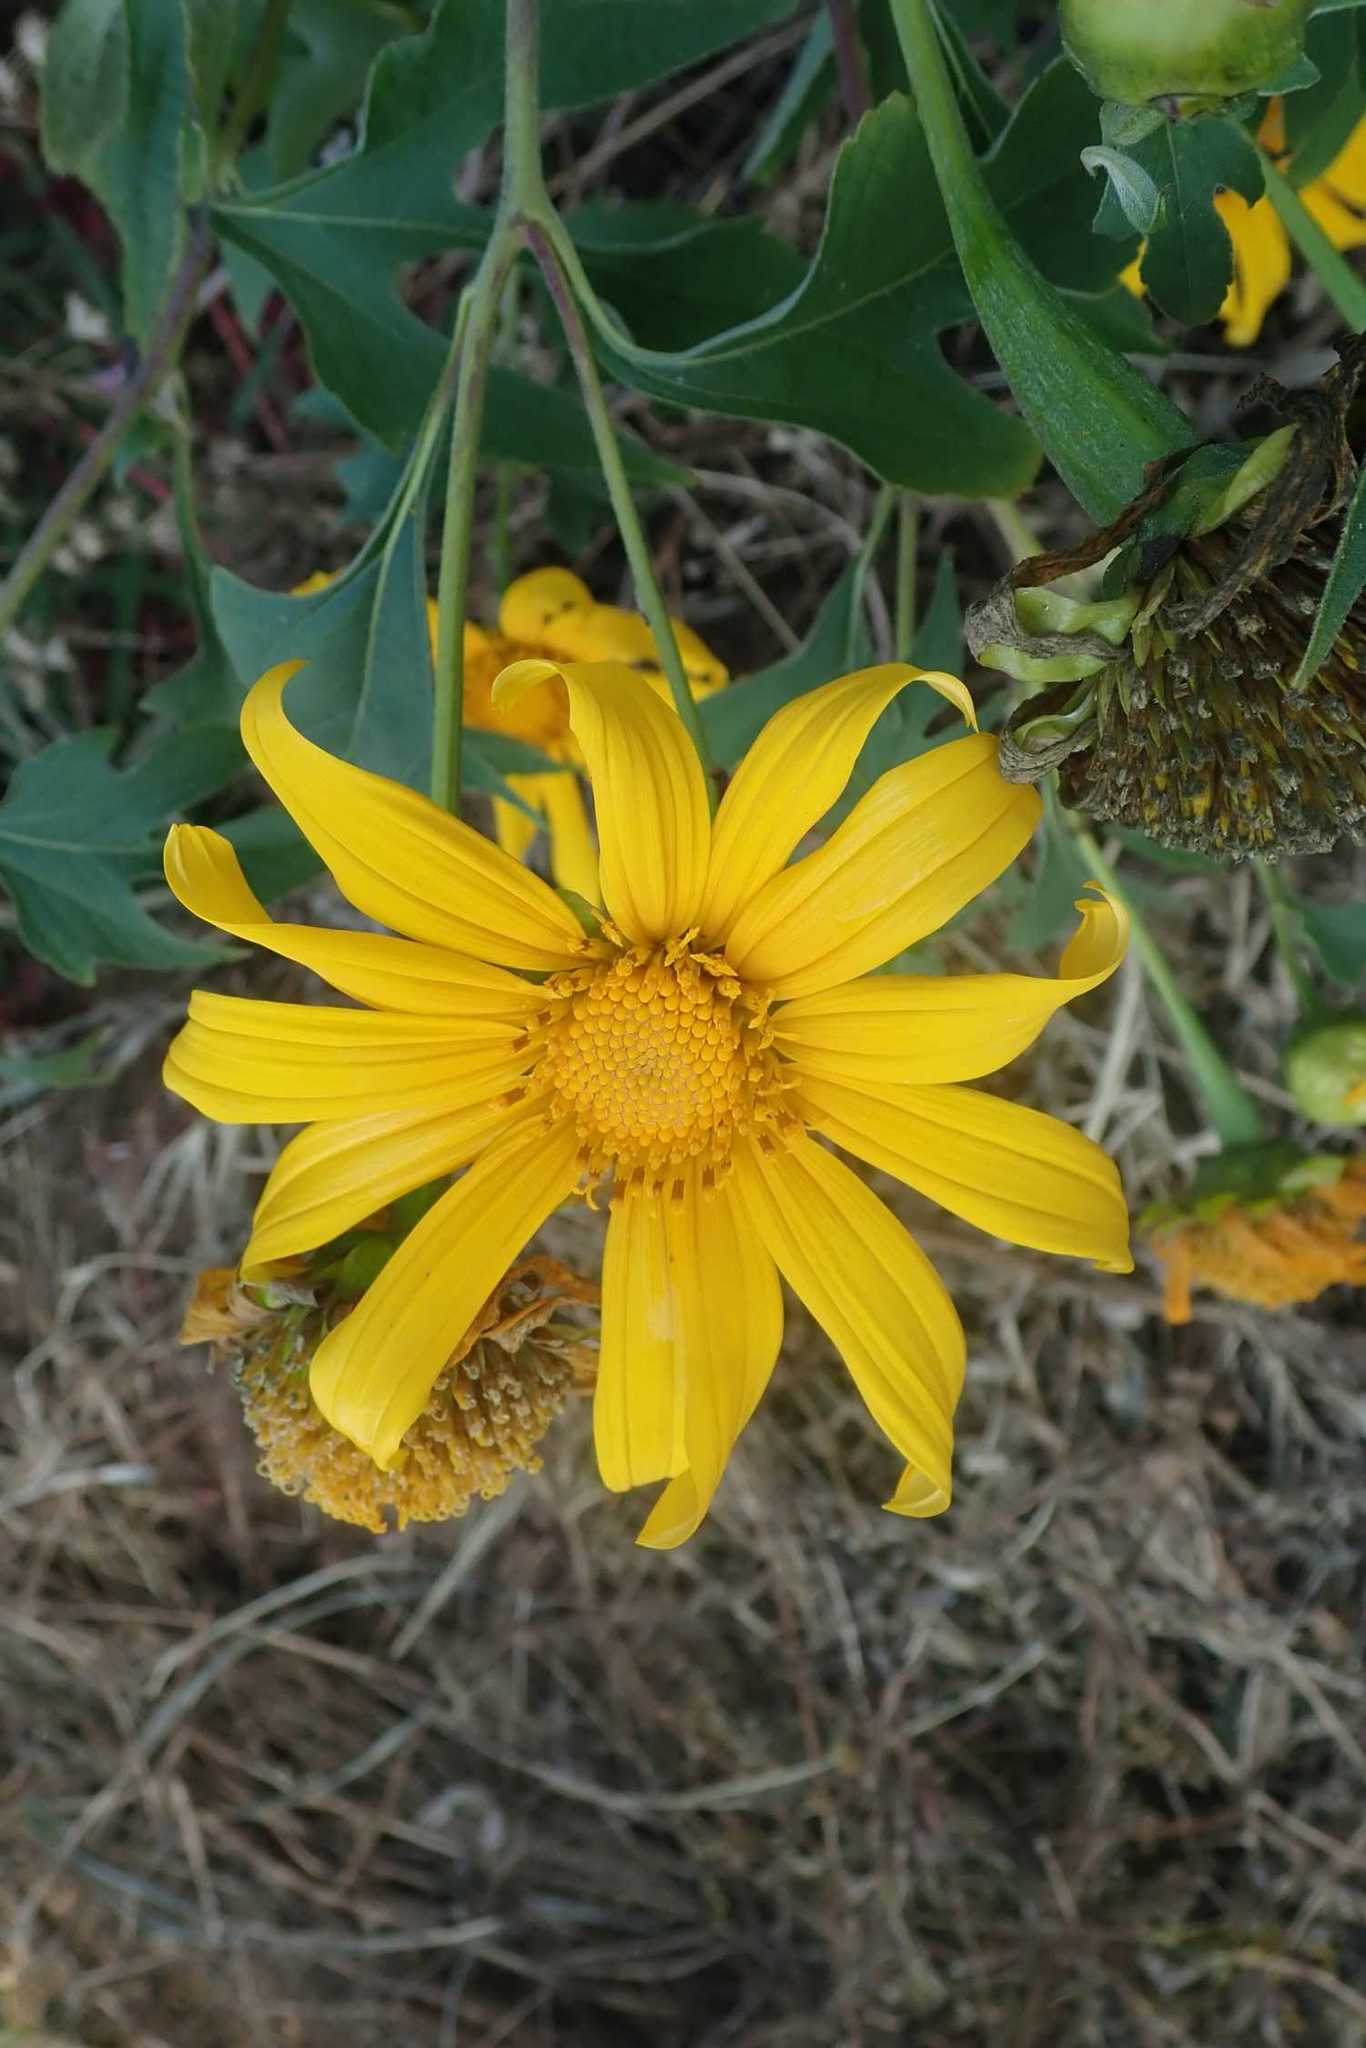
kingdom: Plantae
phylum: Tracheophyta
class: Magnoliopsida
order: Asterales
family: Asteraceae
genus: Tithonia
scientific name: Tithonia diversifolia
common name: Tree marigold
